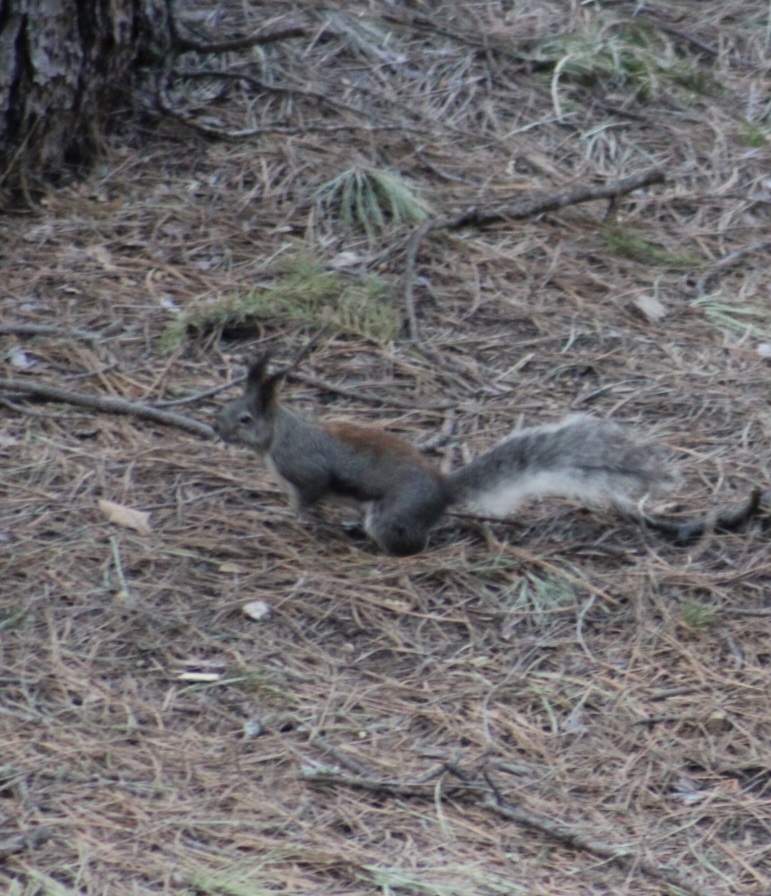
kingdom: Animalia
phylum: Chordata
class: Mammalia
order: Rodentia
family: Sciuridae
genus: Sciurus
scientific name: Sciurus aberti
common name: Abert's squirrel
